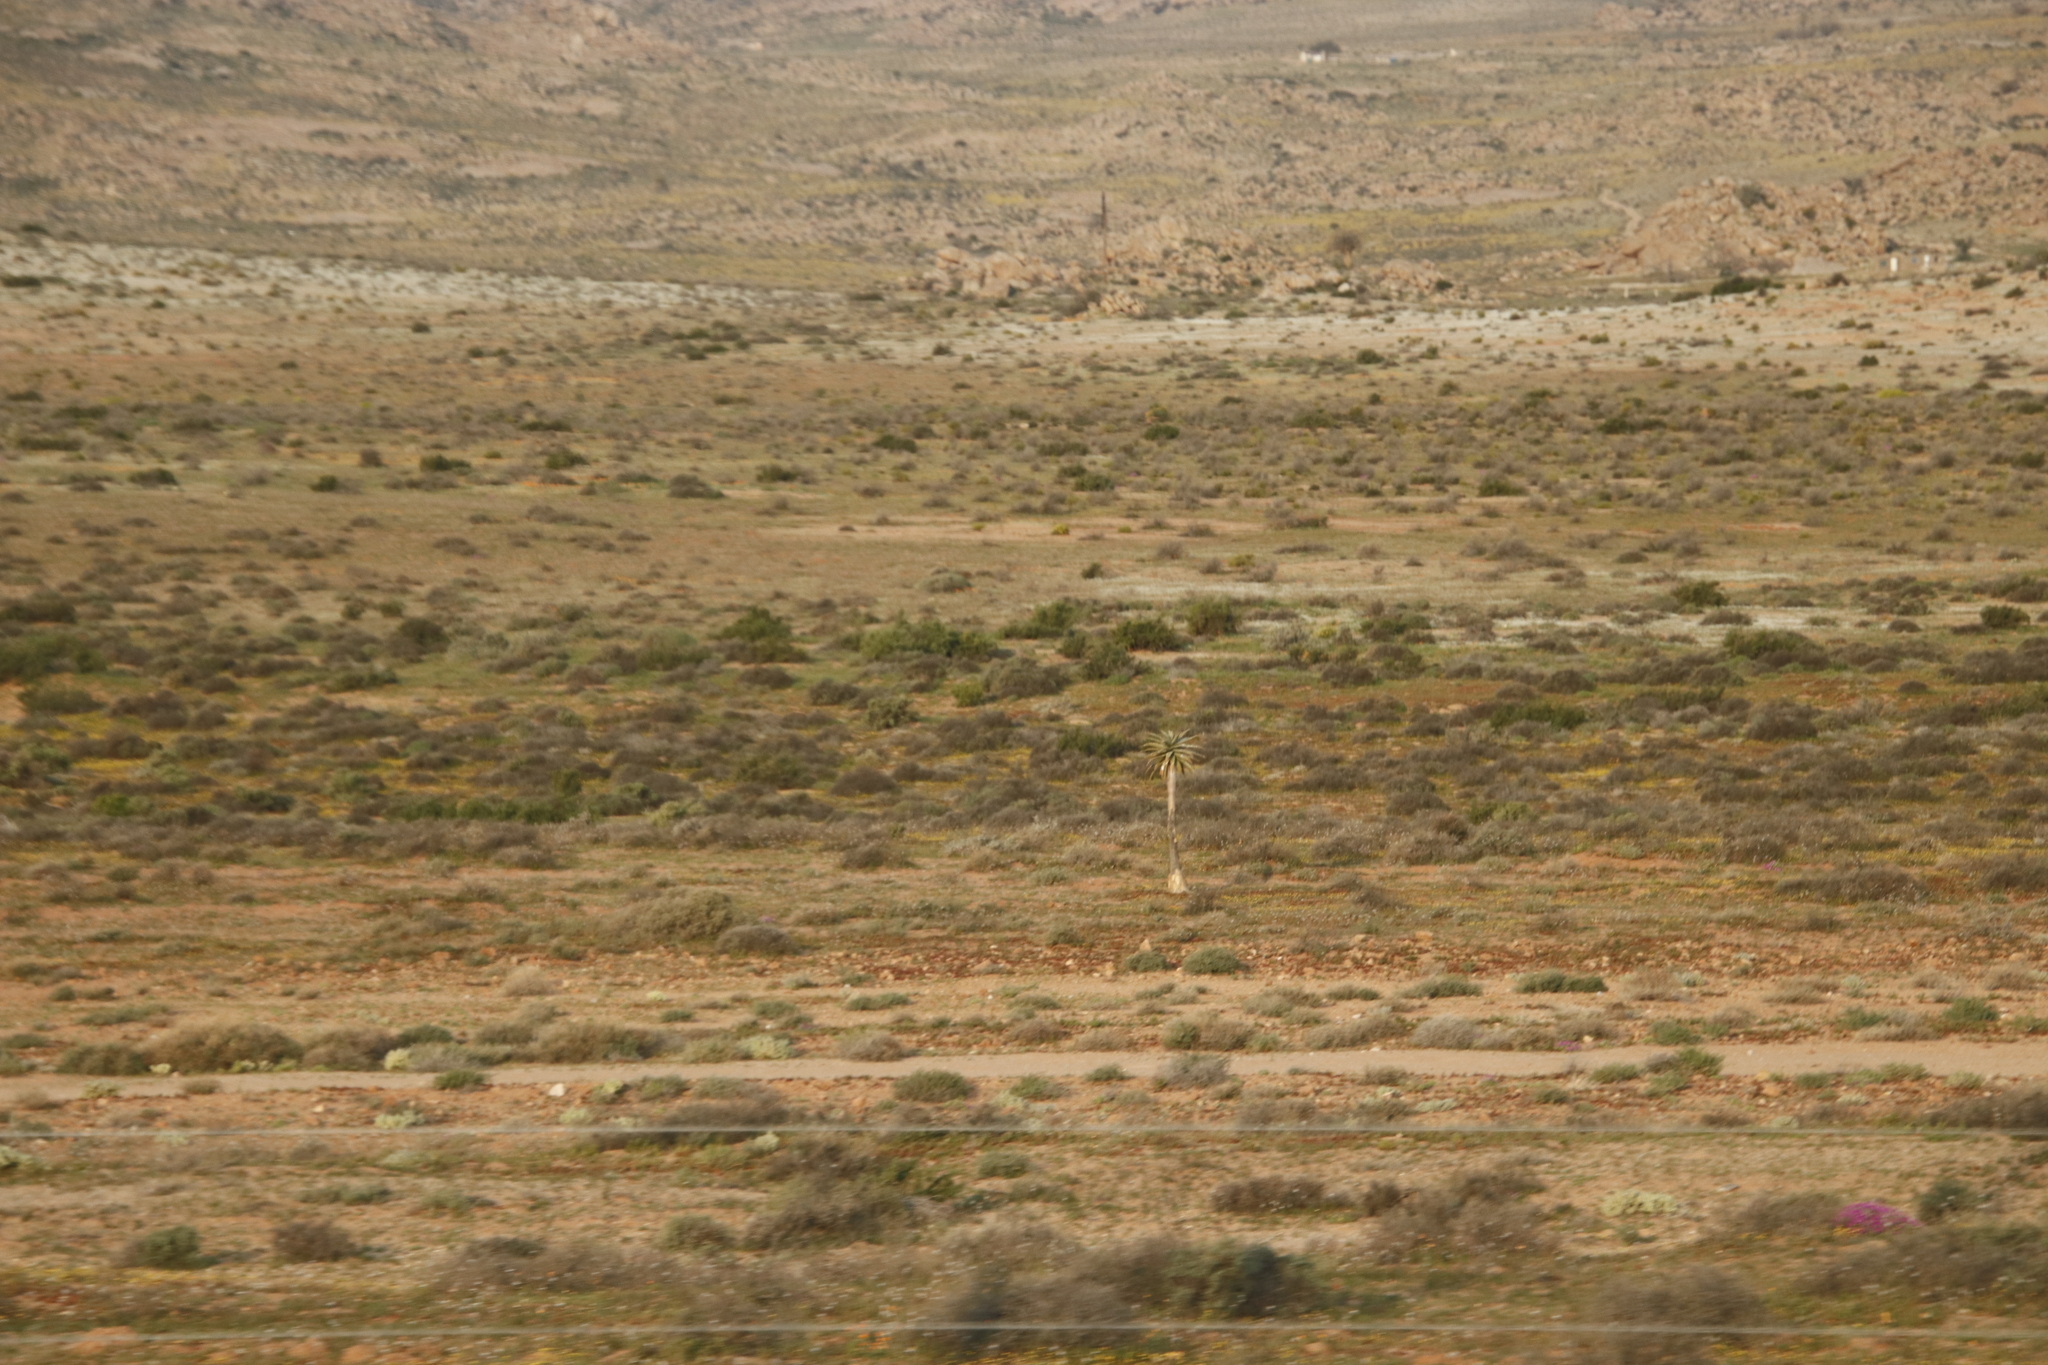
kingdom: Plantae
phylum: Tracheophyta
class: Liliopsida
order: Asparagales
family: Asphodelaceae
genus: Aloidendron
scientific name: Aloidendron dichotomum
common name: Quiver tree
